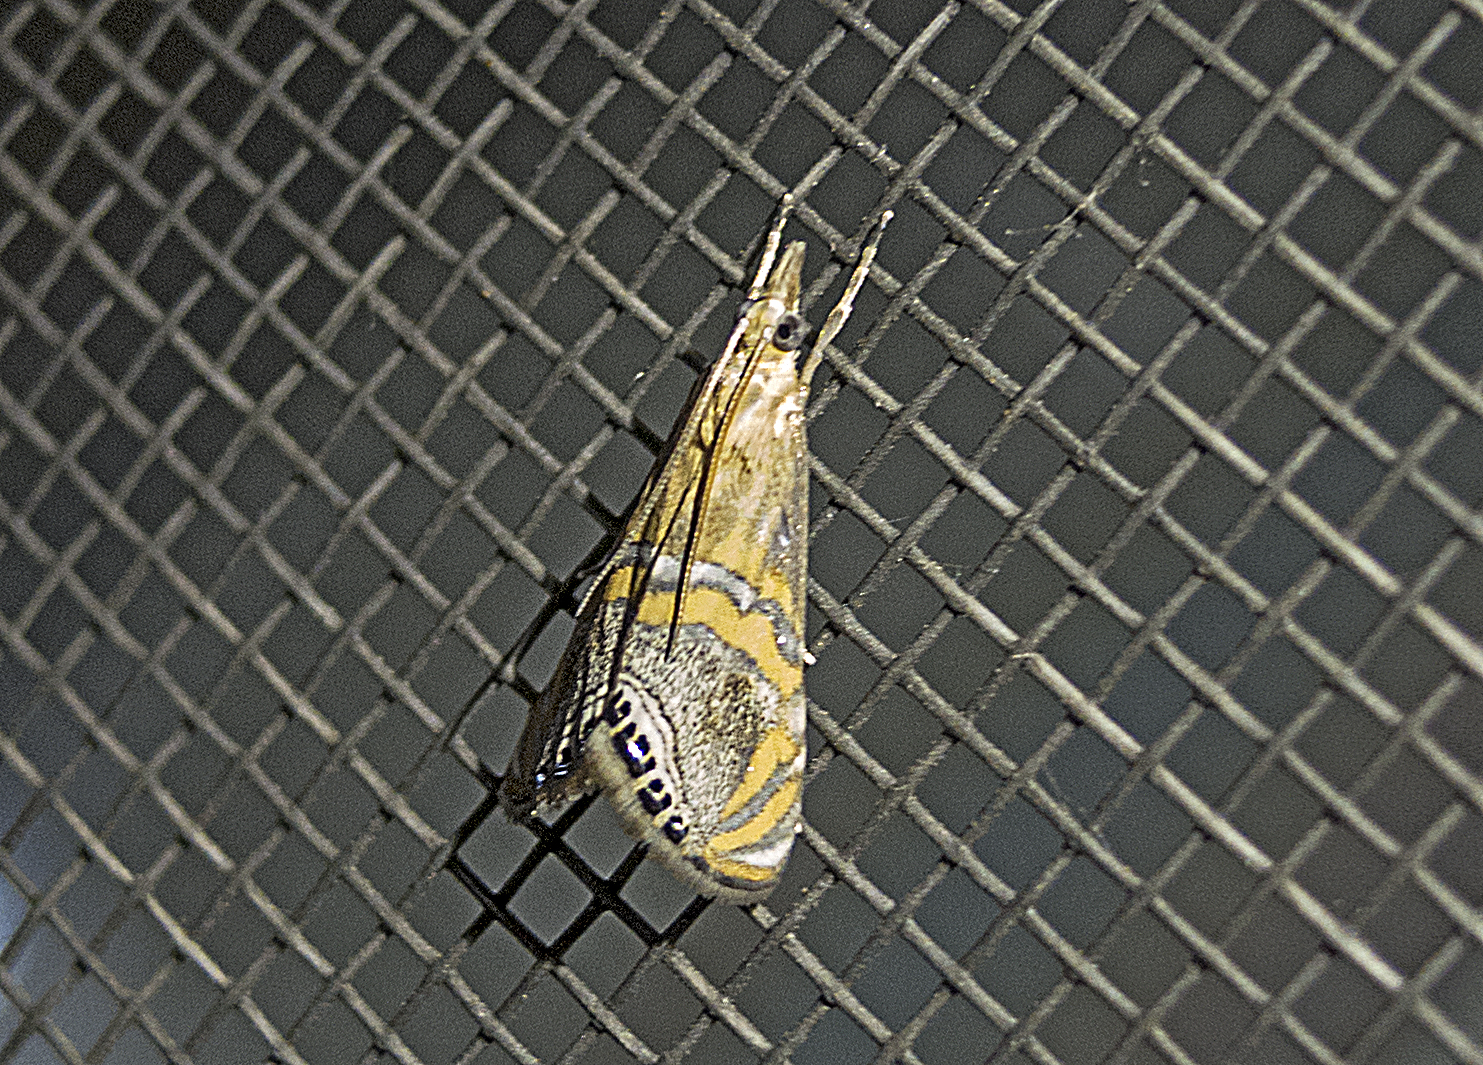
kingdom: Animalia
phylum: Arthropoda
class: Insecta
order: Lepidoptera
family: Crambidae
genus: Euchromius
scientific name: Euchromius bella
